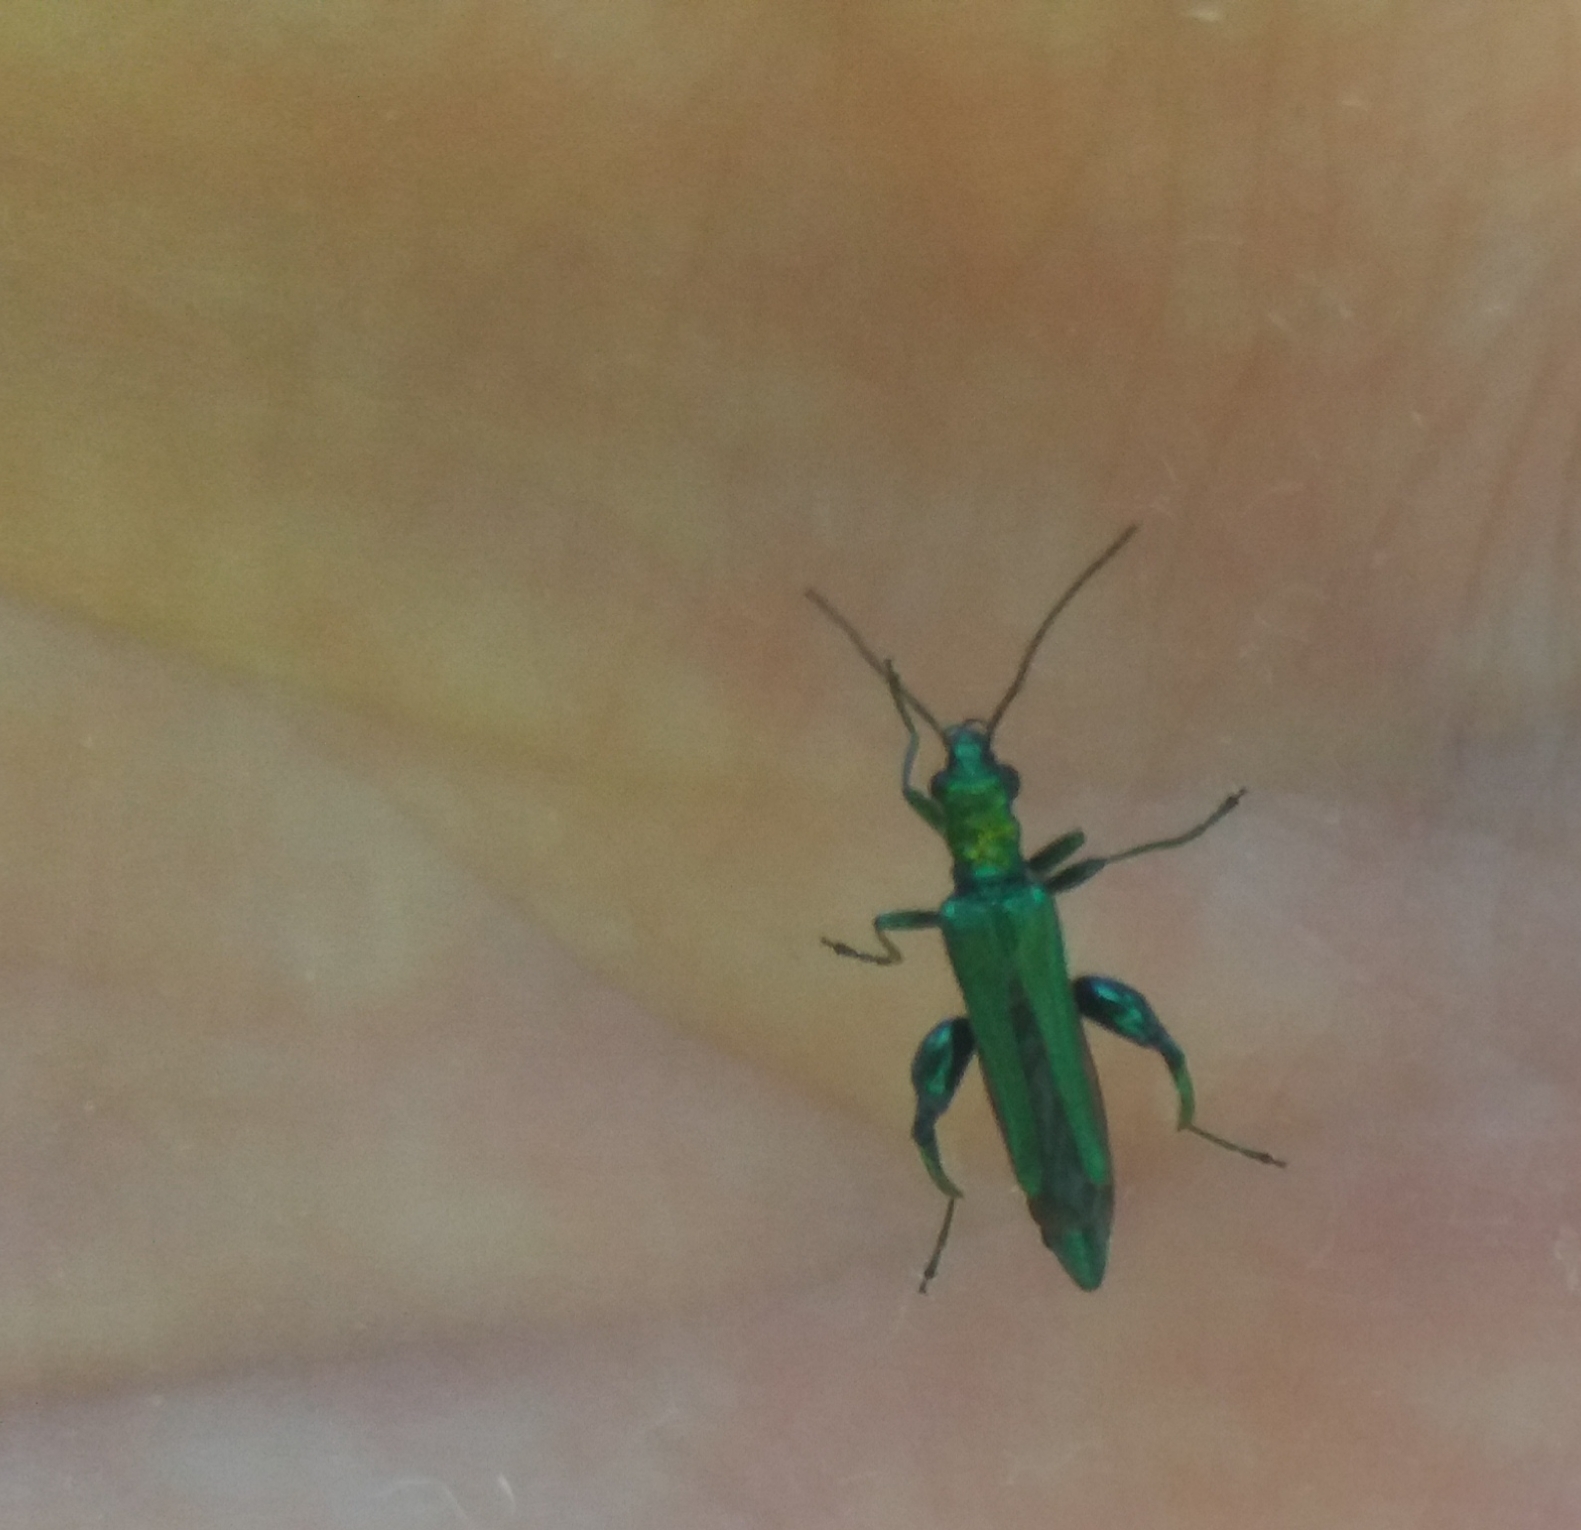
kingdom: Animalia
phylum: Arthropoda
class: Insecta
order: Coleoptera
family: Oedemeridae
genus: Oedemera
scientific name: Oedemera nobilis
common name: Swollen-thighed beetle
